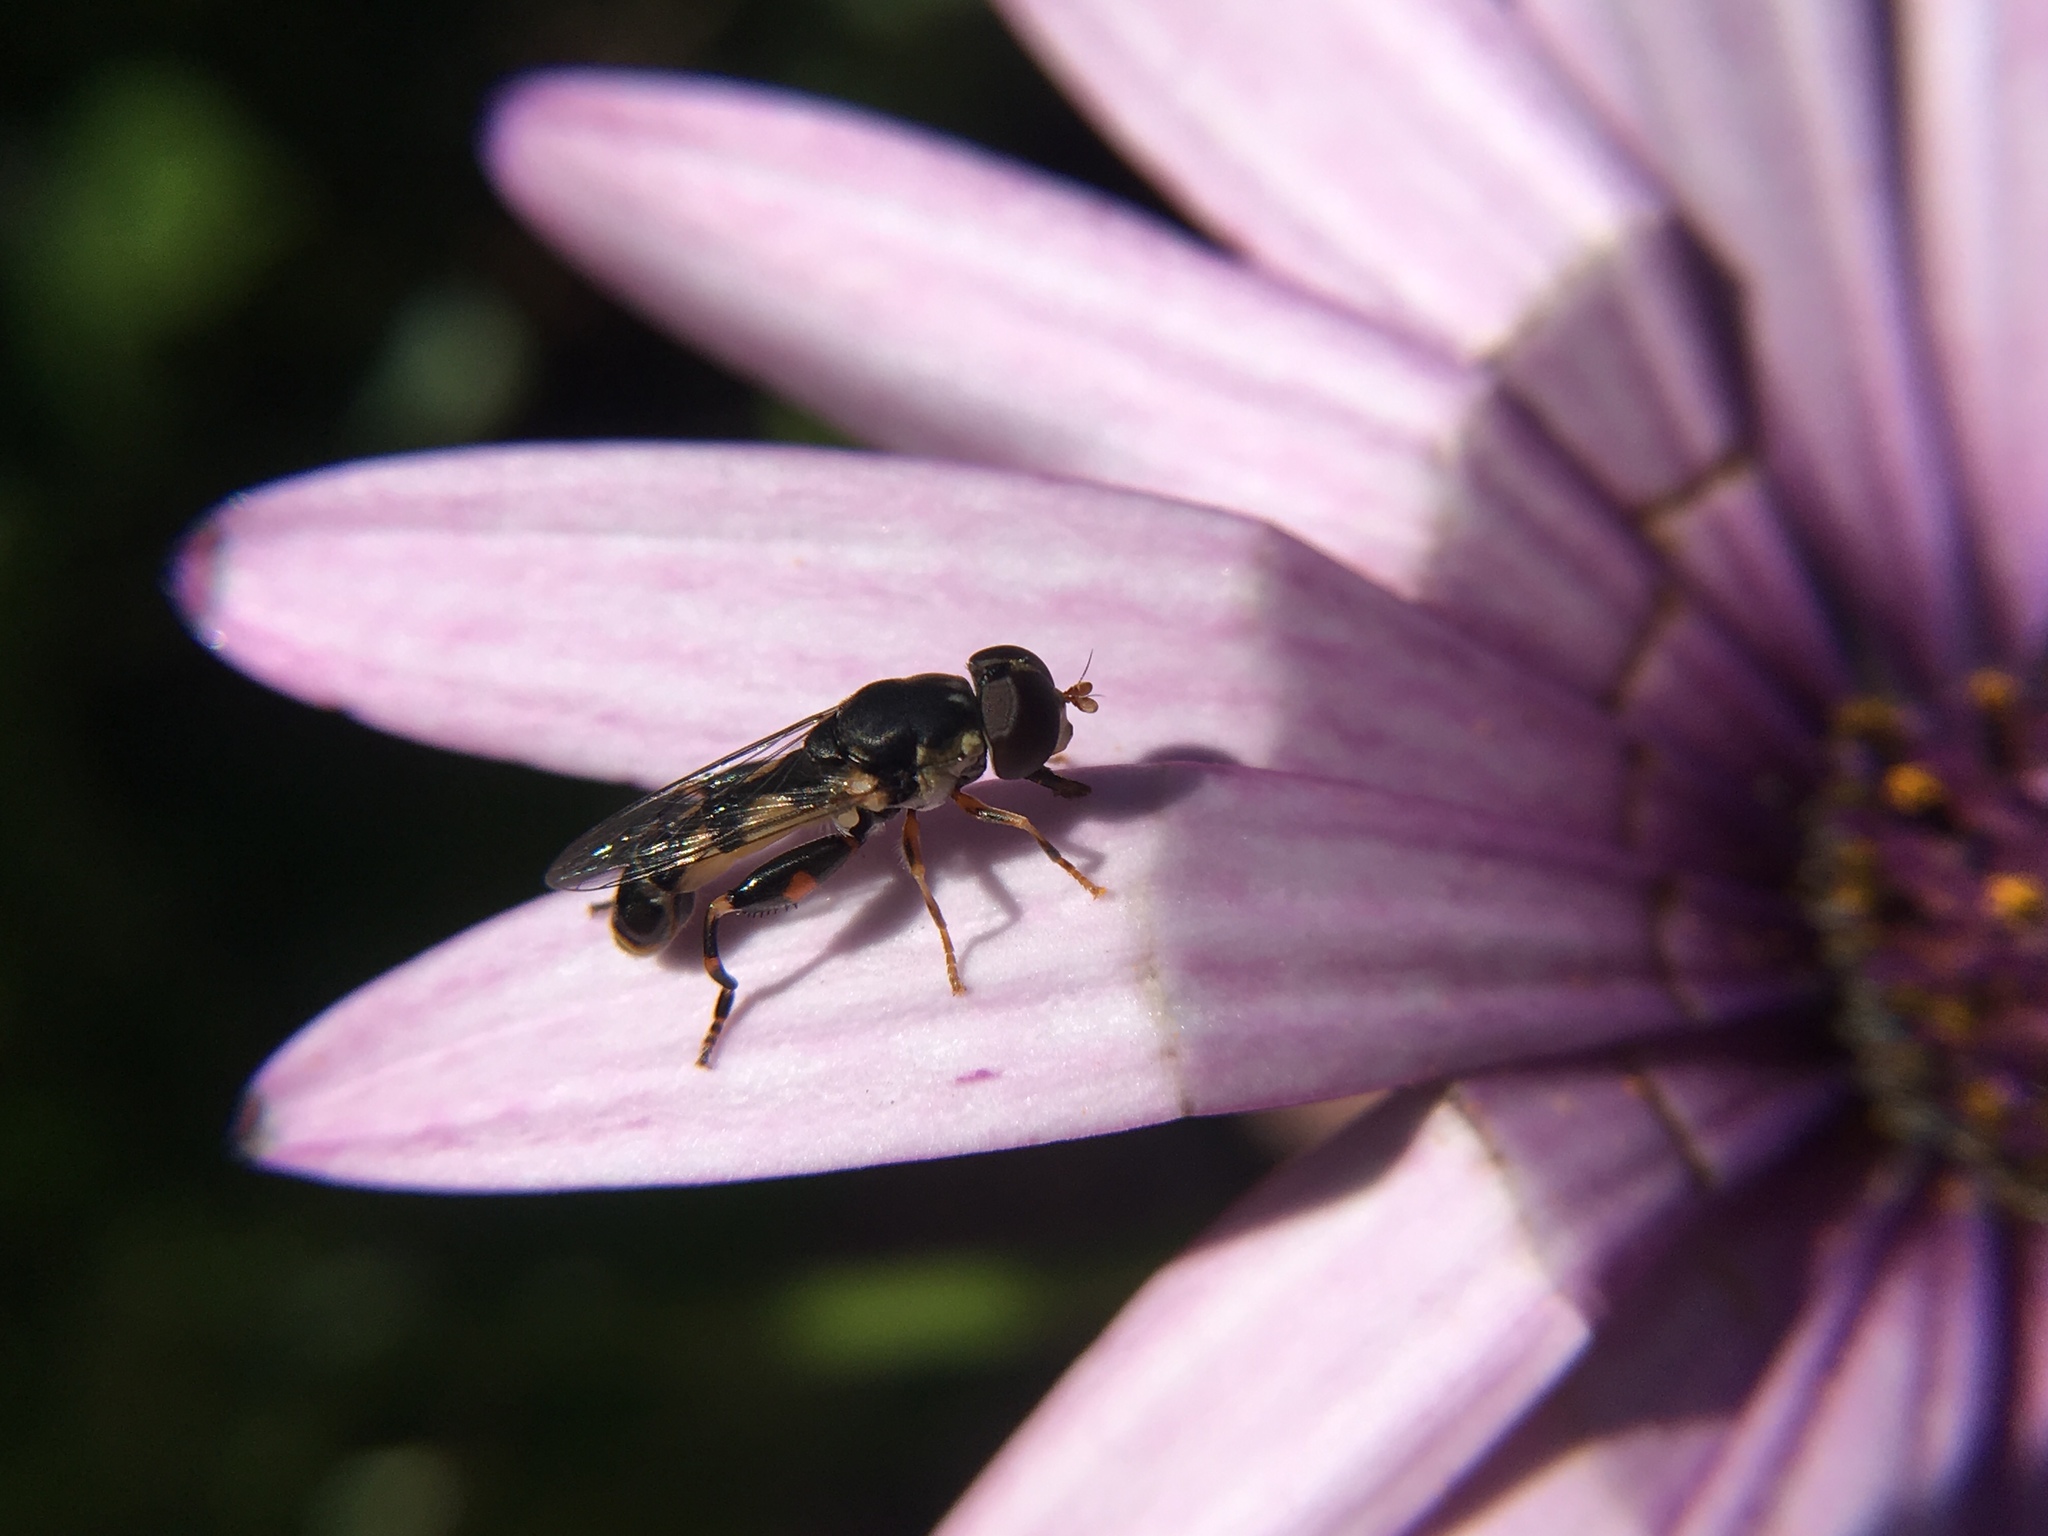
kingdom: Animalia
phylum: Arthropoda
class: Insecta
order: Diptera
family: Syrphidae
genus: Syritta
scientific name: Syritta pipiens
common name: Hover fly
